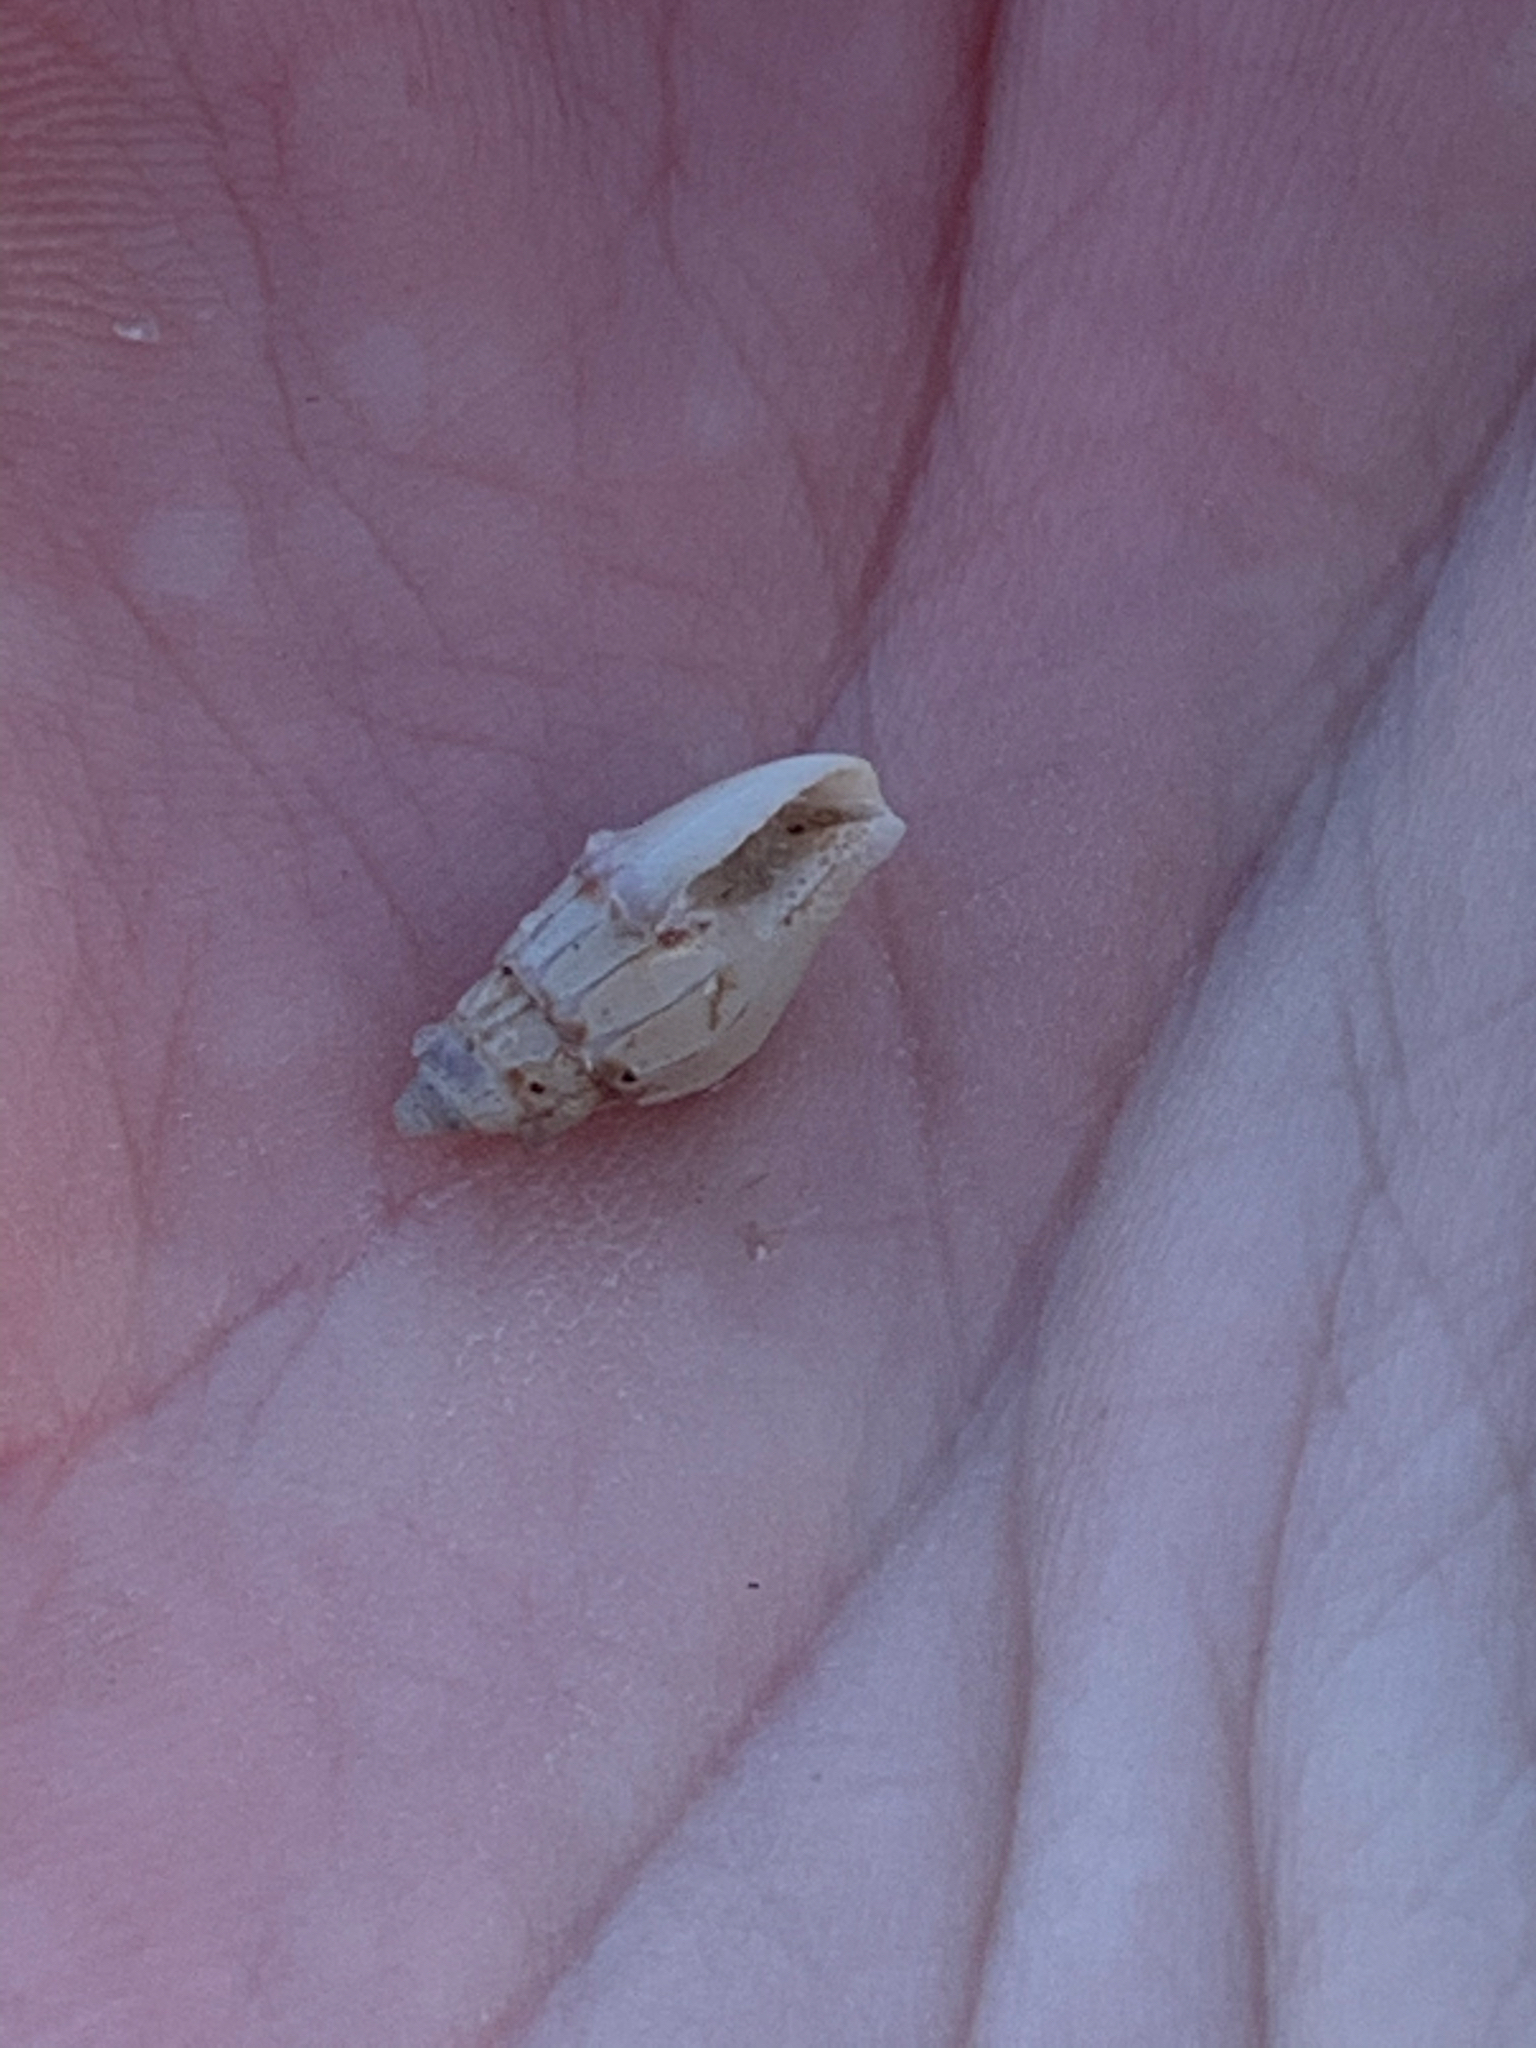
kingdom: Animalia
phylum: Mollusca
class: Gastropoda
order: Neogastropoda
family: Columbellidae
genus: Costoanachis
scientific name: Costoanachis
